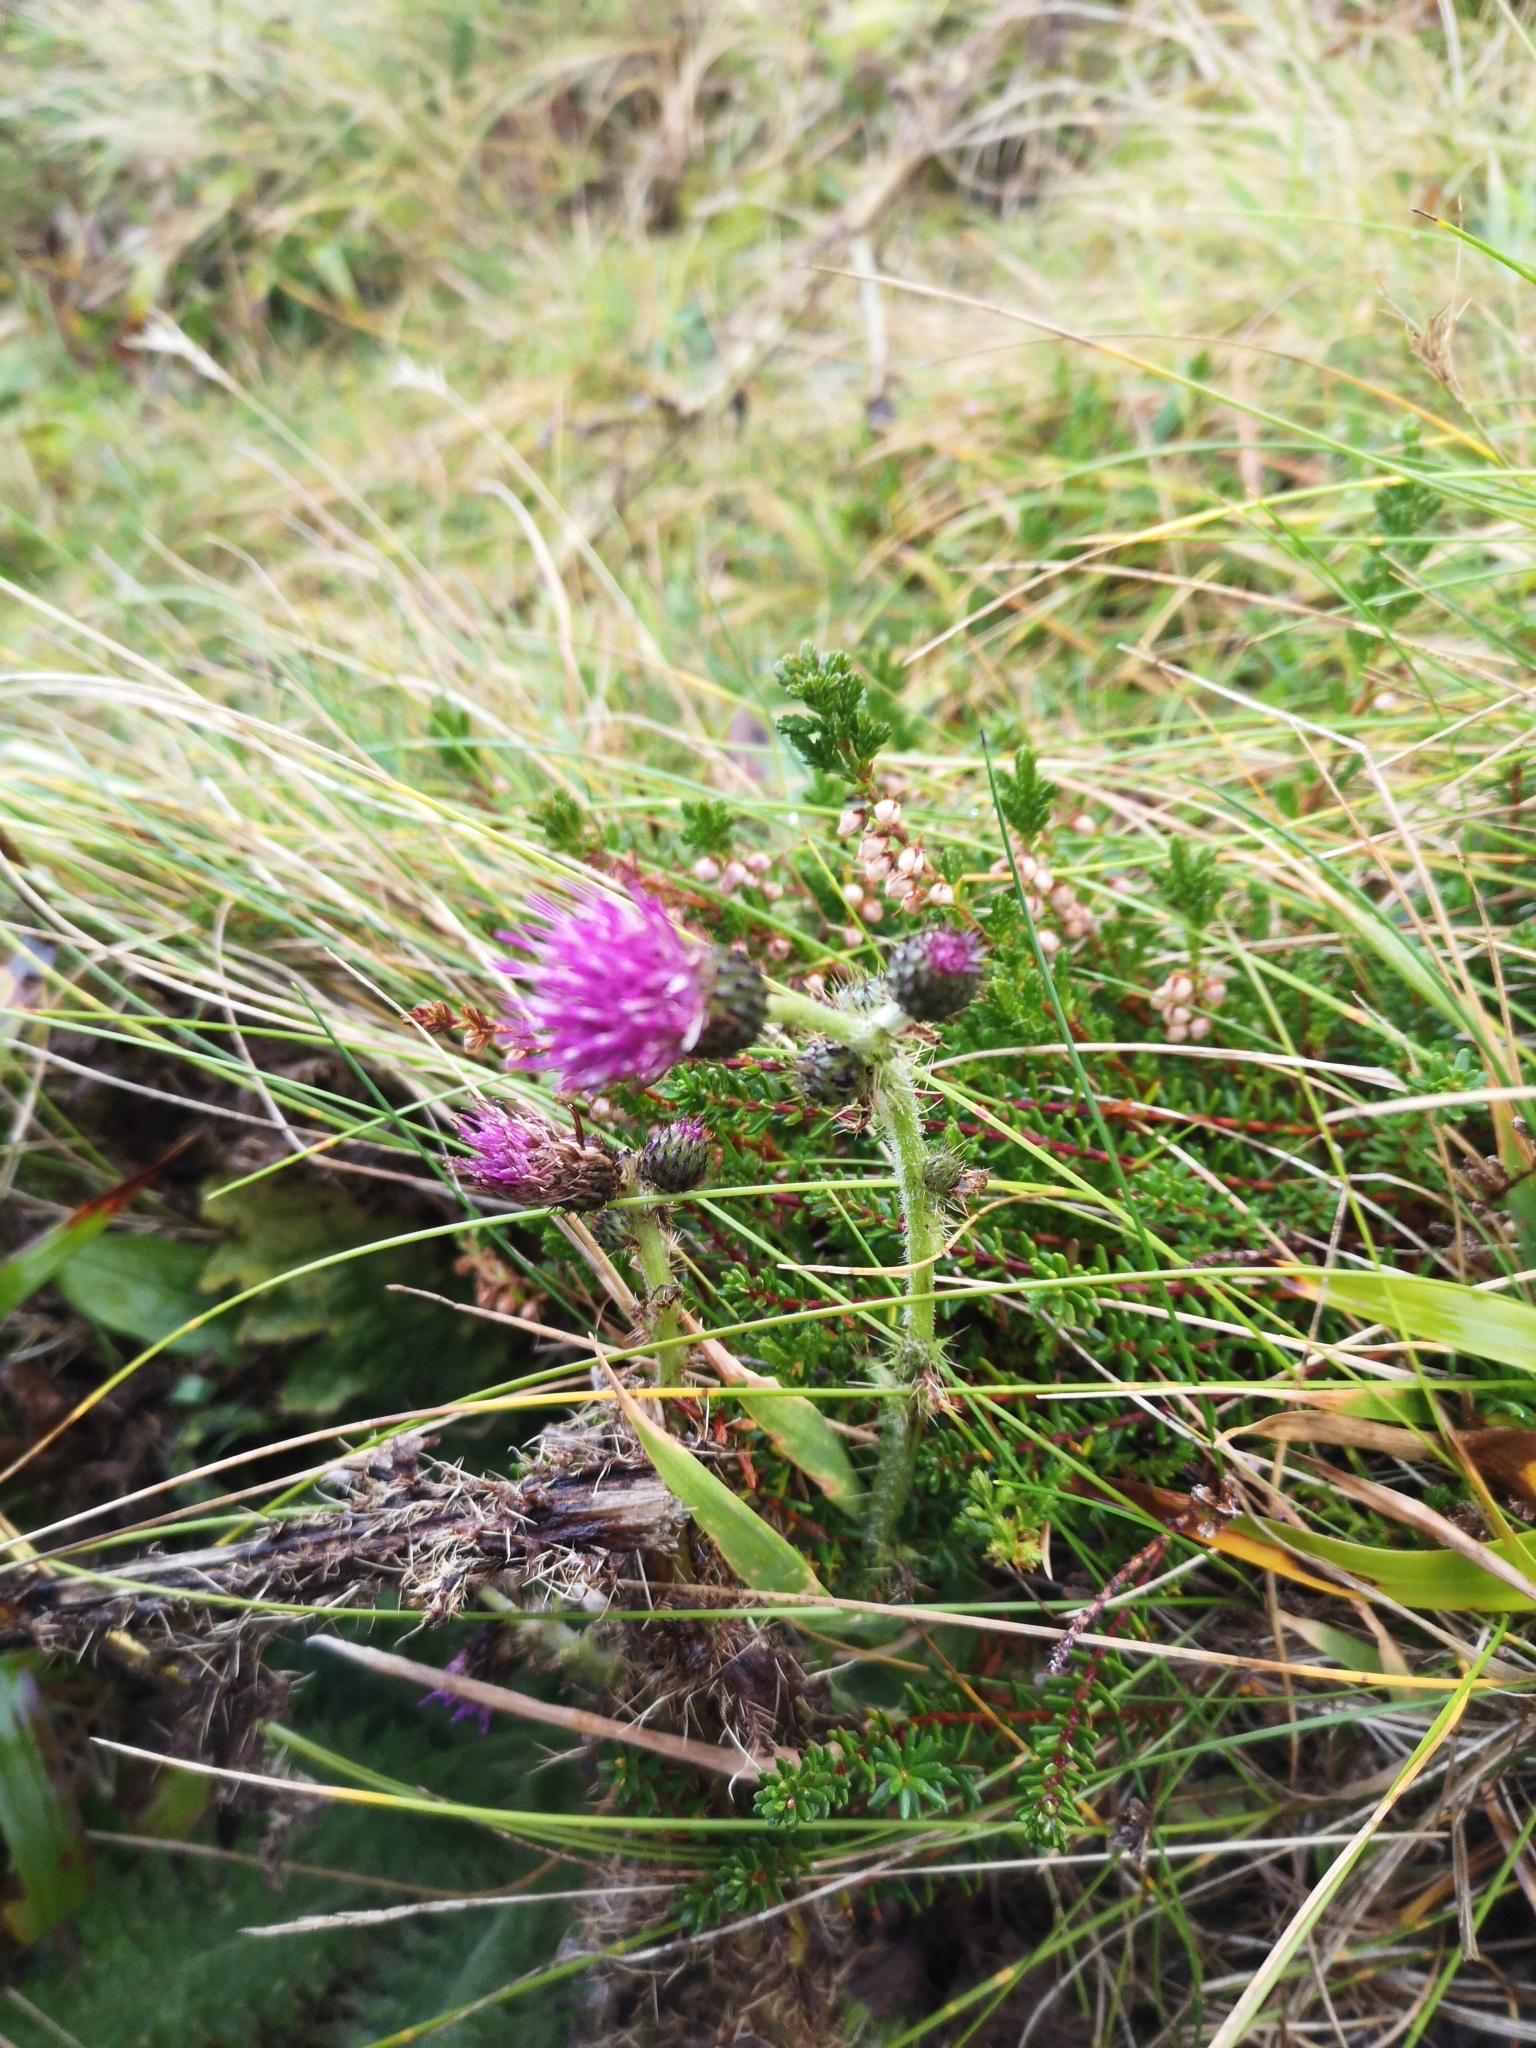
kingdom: Plantae
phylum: Tracheophyta
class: Magnoliopsida
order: Asterales
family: Asteraceae
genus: Cirsium
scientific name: Cirsium palustre
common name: Marsh thistle
